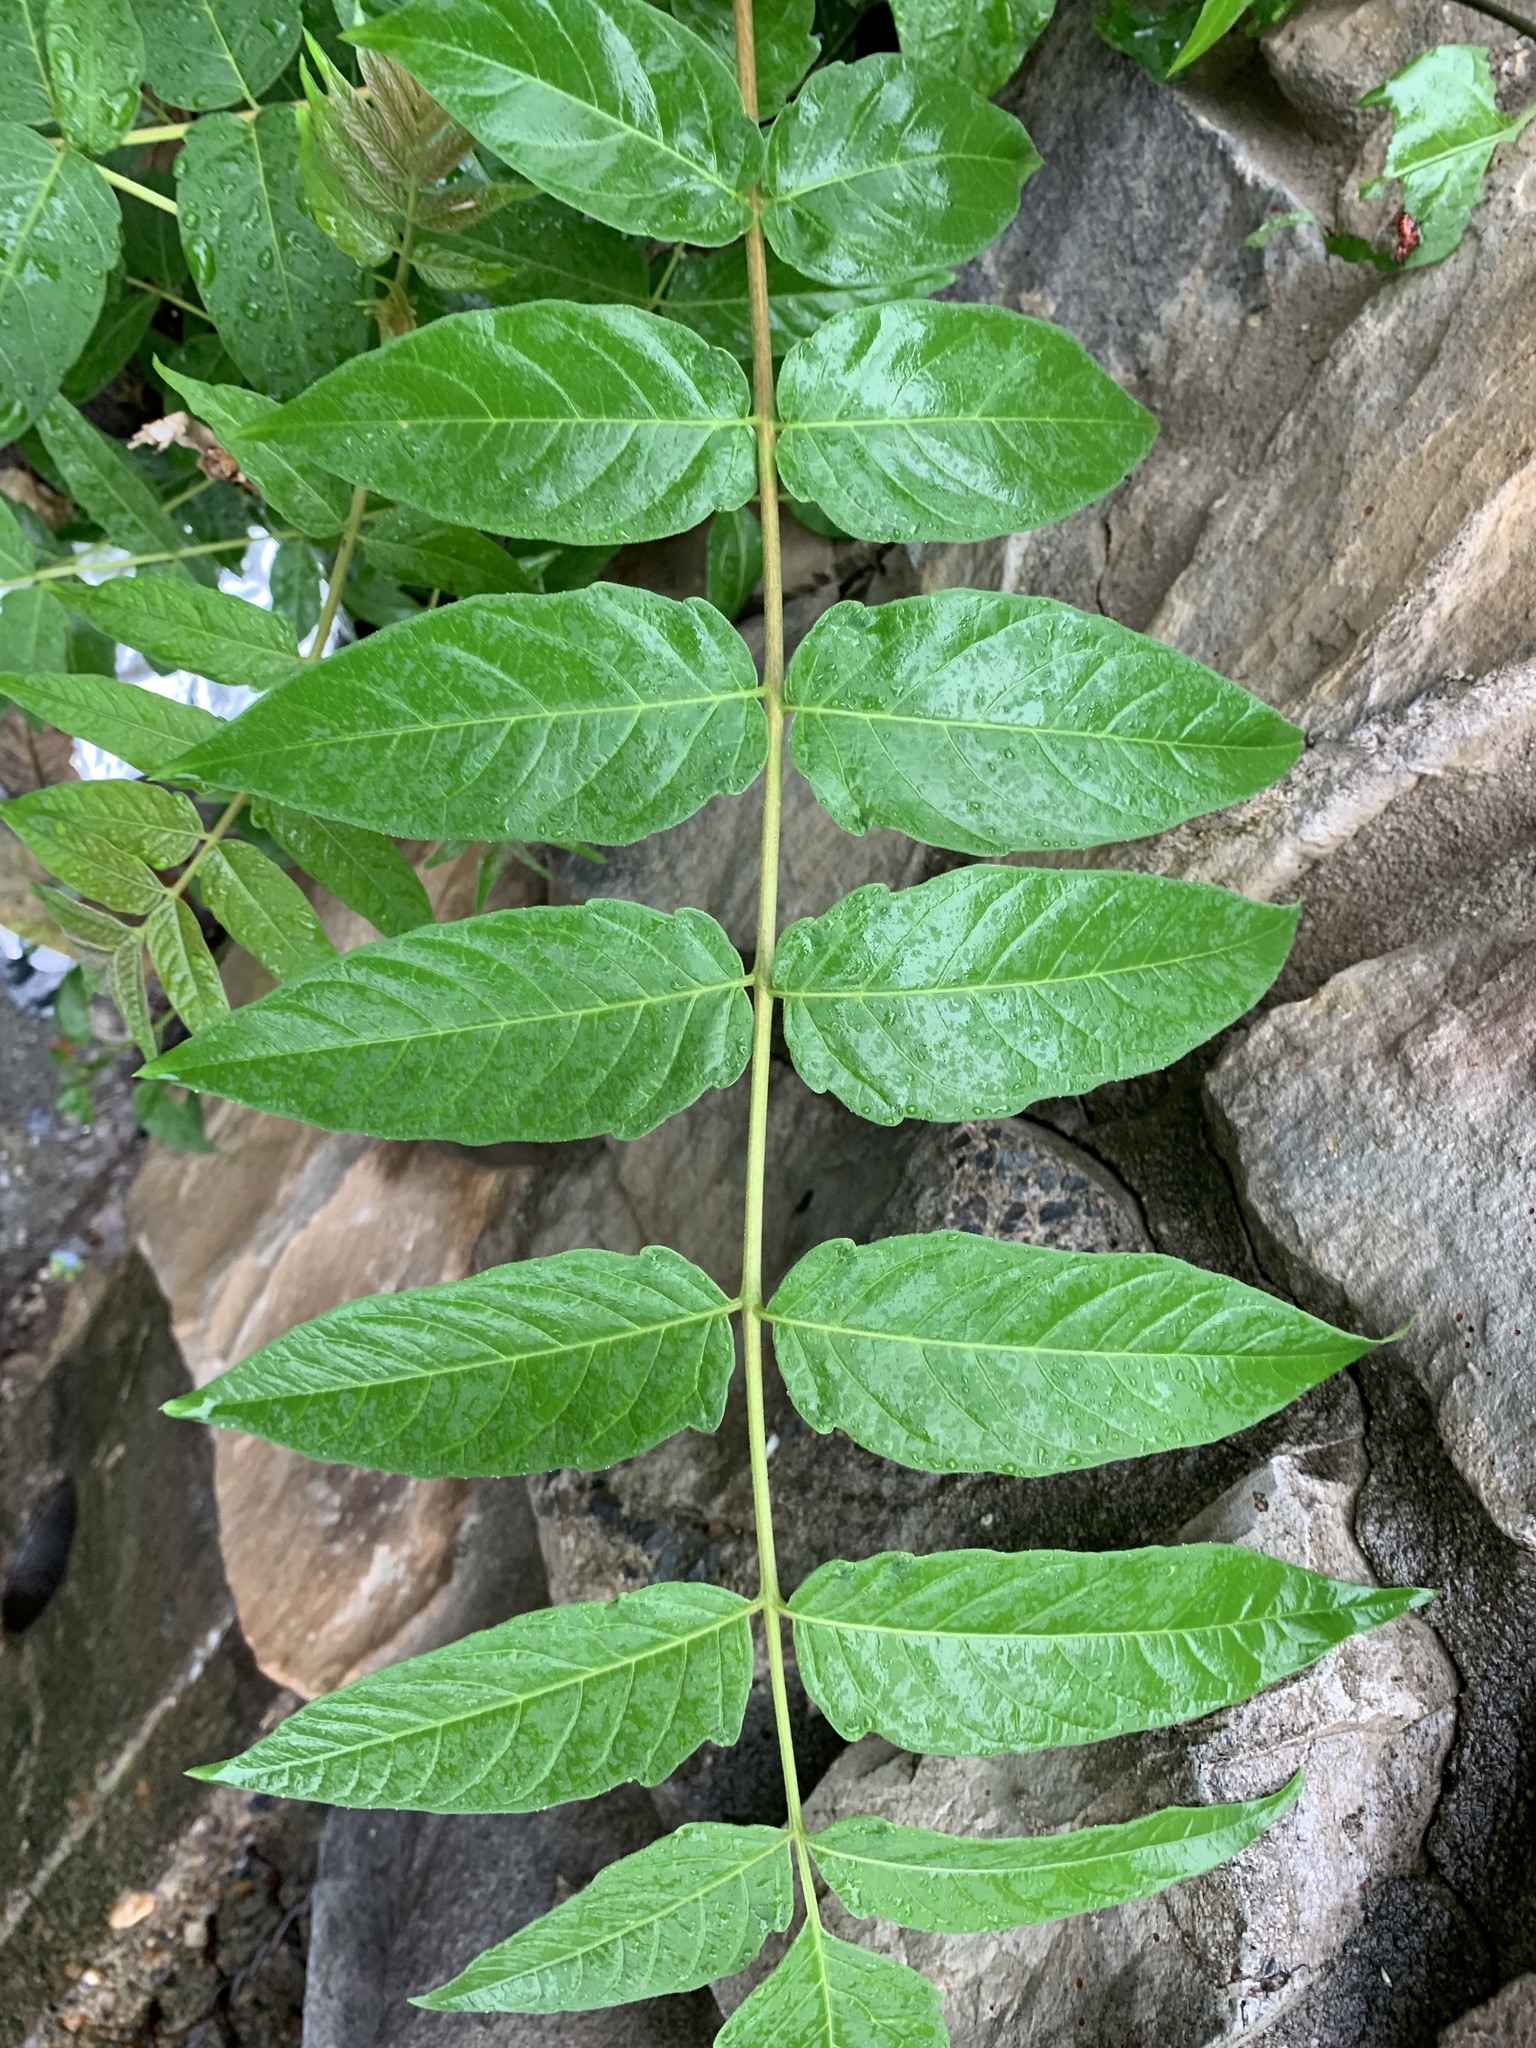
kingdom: Plantae
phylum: Tracheophyta
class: Magnoliopsida
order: Sapindales
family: Simaroubaceae
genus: Ailanthus
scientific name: Ailanthus altissima
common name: Tree-of-heaven
